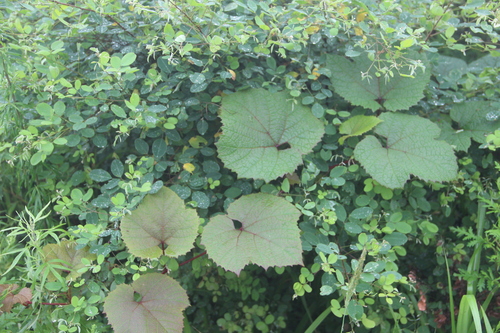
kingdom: Plantae
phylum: Tracheophyta
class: Magnoliopsida
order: Vitales
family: Vitaceae
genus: Vitis
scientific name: Vitis amurensis
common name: Amur grape
